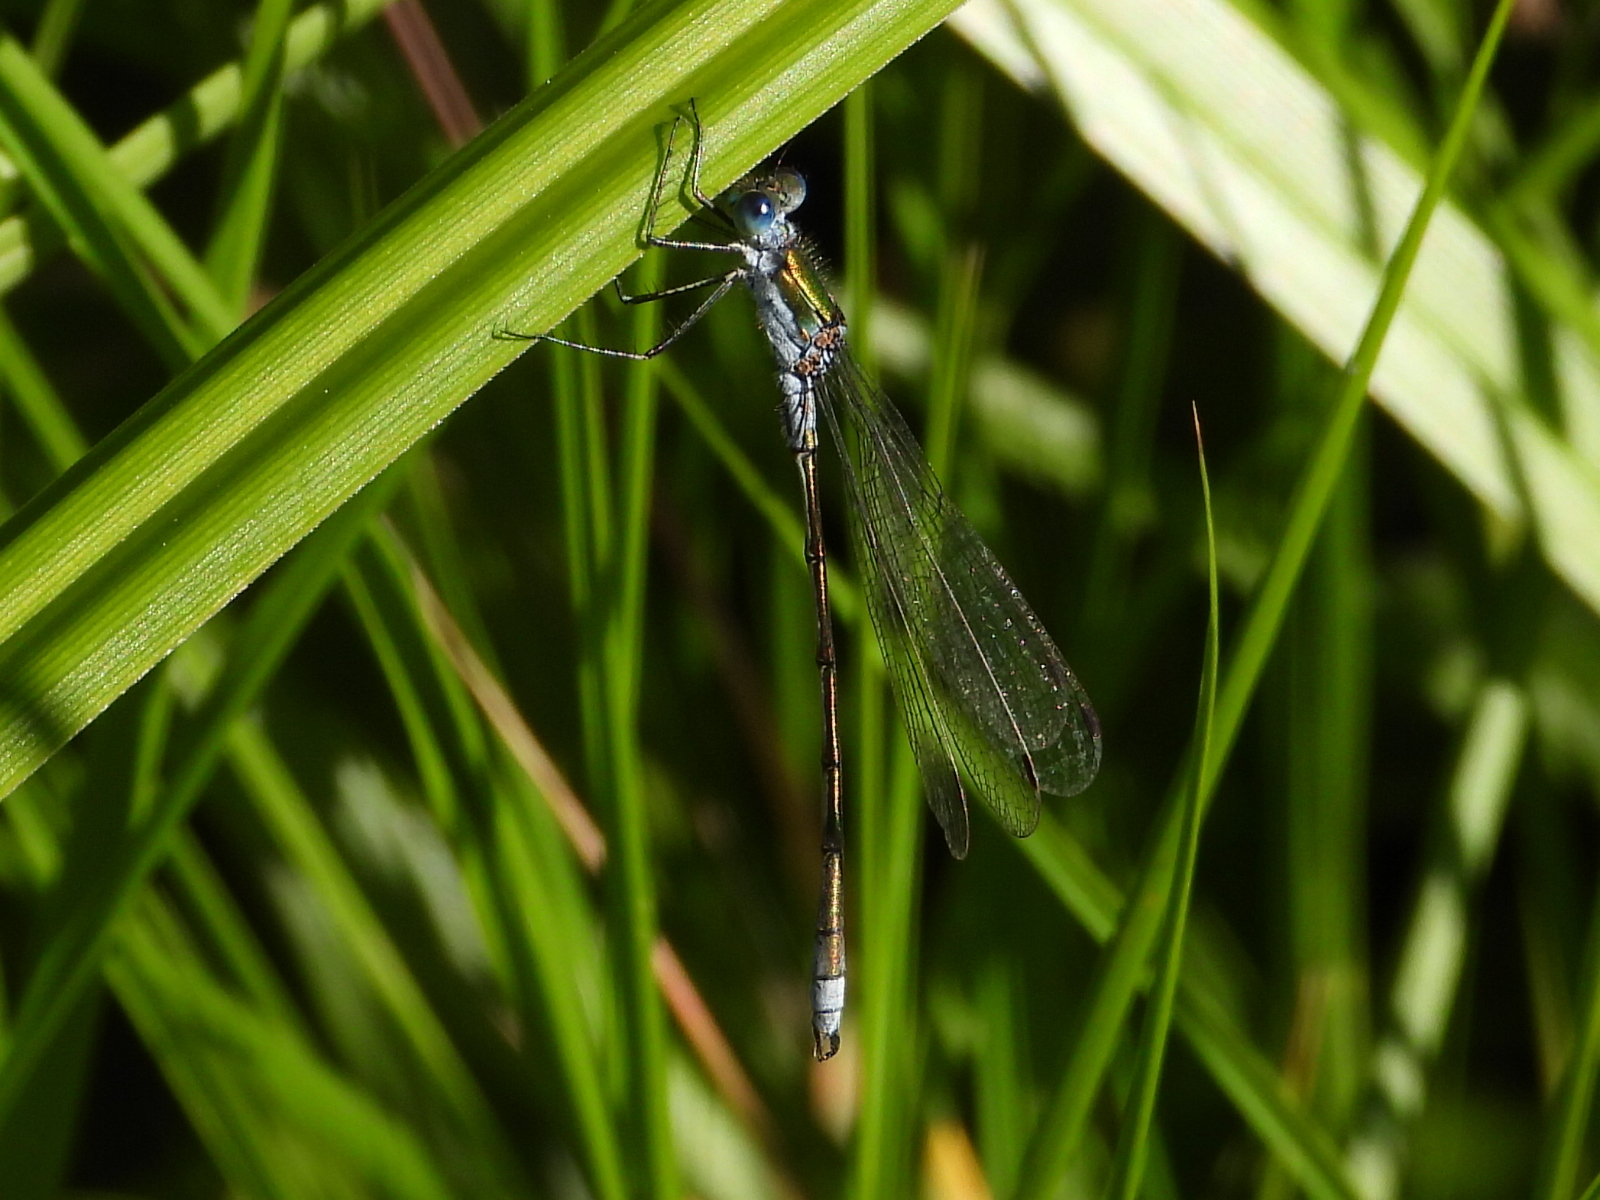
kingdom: Animalia
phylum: Arthropoda
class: Insecta
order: Odonata
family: Lestidae
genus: Lestes
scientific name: Lestes dryas
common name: Scarce emerald damselfly
